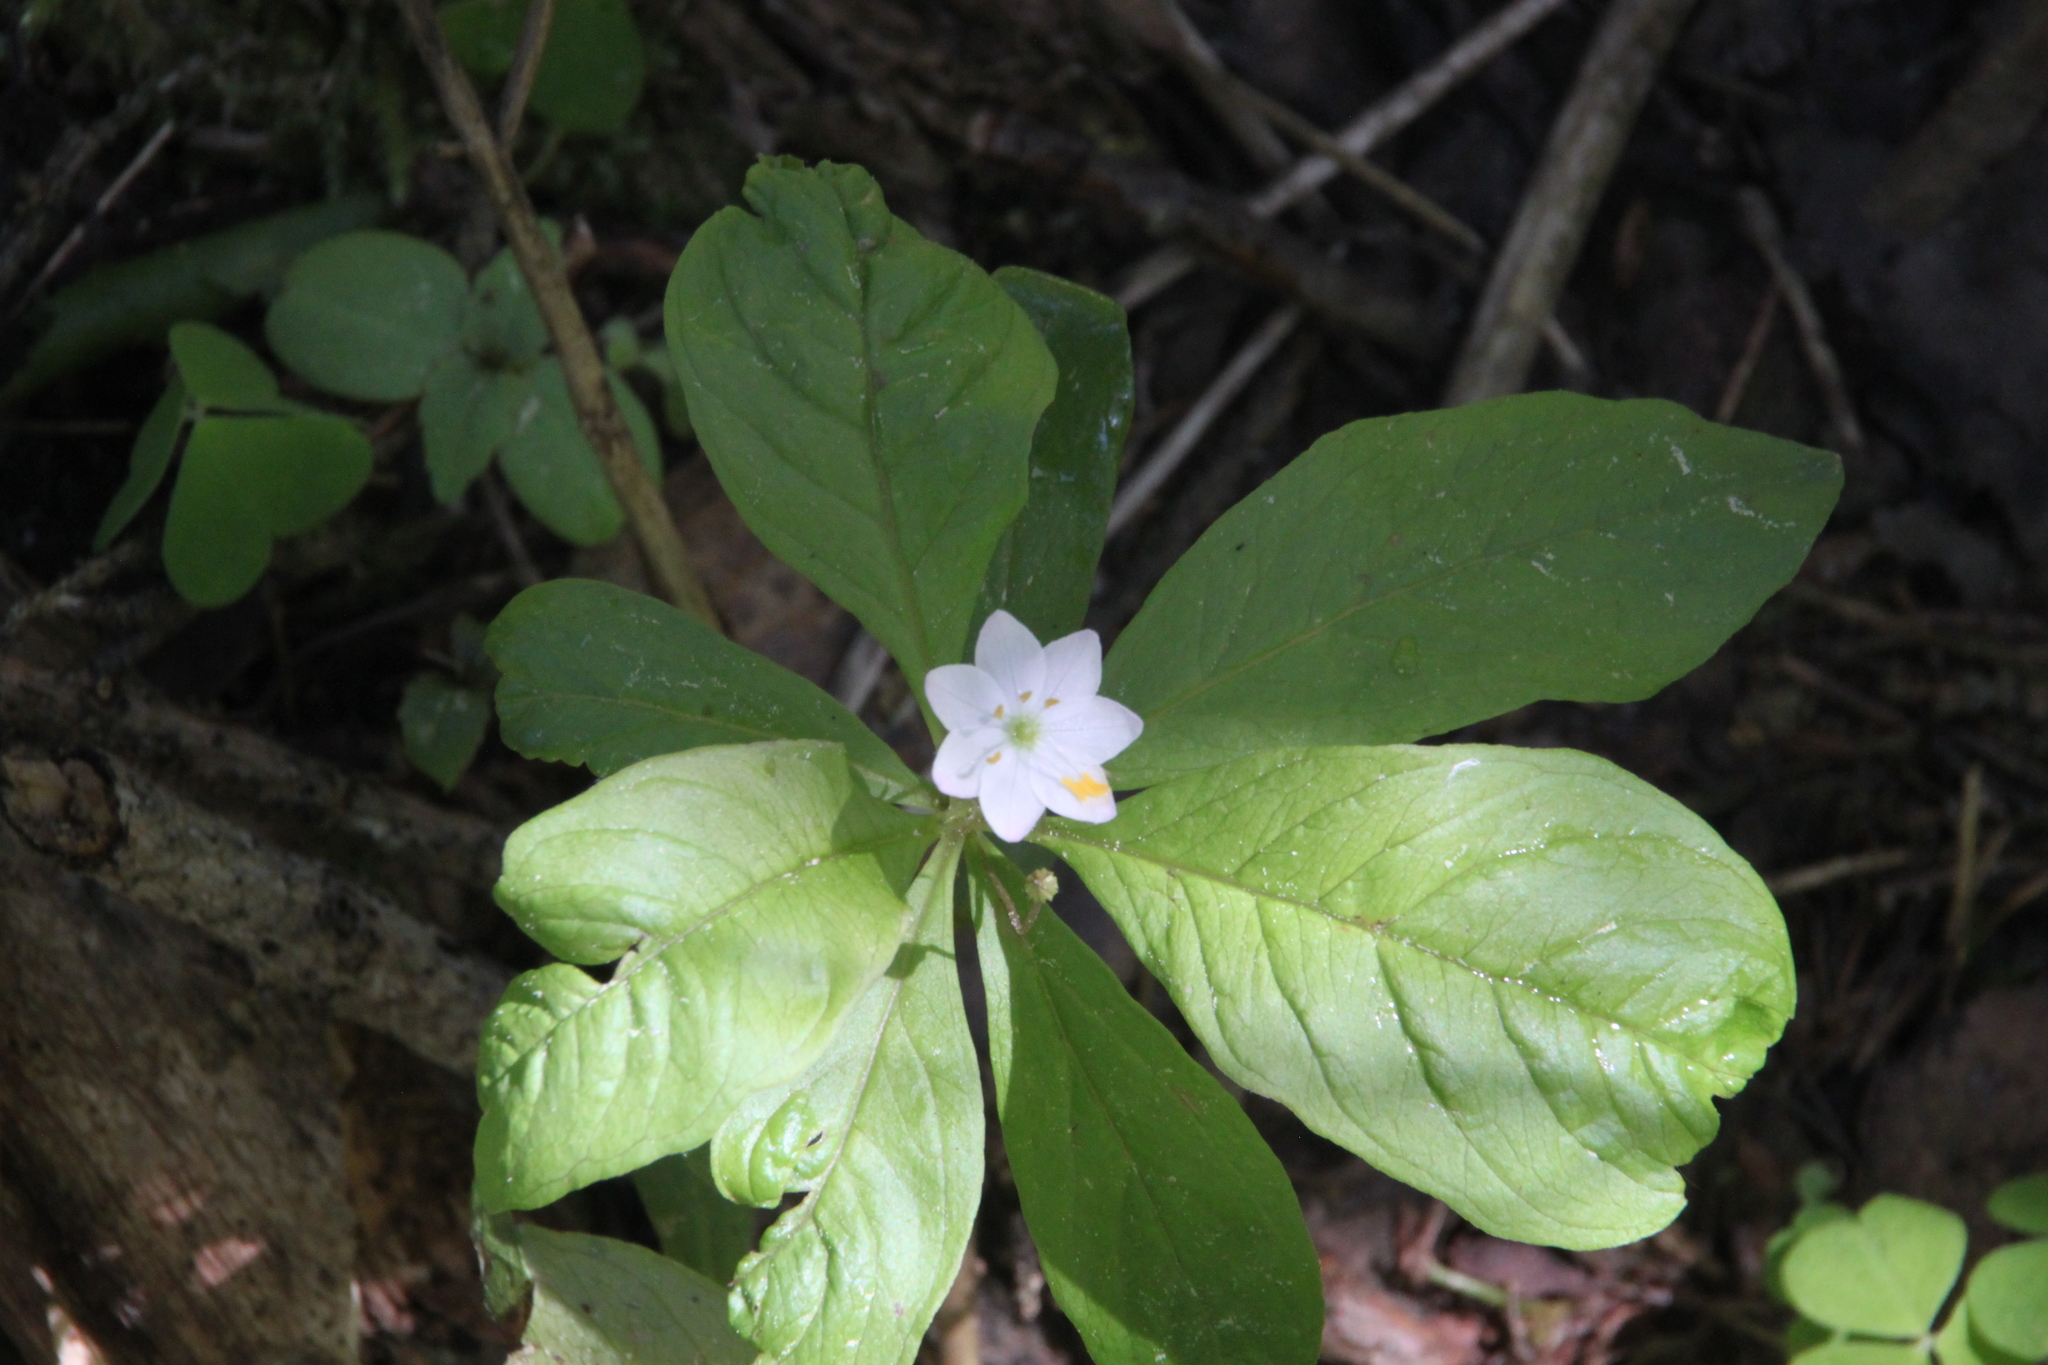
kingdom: Plantae
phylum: Tracheophyta
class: Magnoliopsida
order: Ericales
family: Primulaceae
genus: Lysimachia
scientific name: Lysimachia europaea
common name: Arctic starflower
